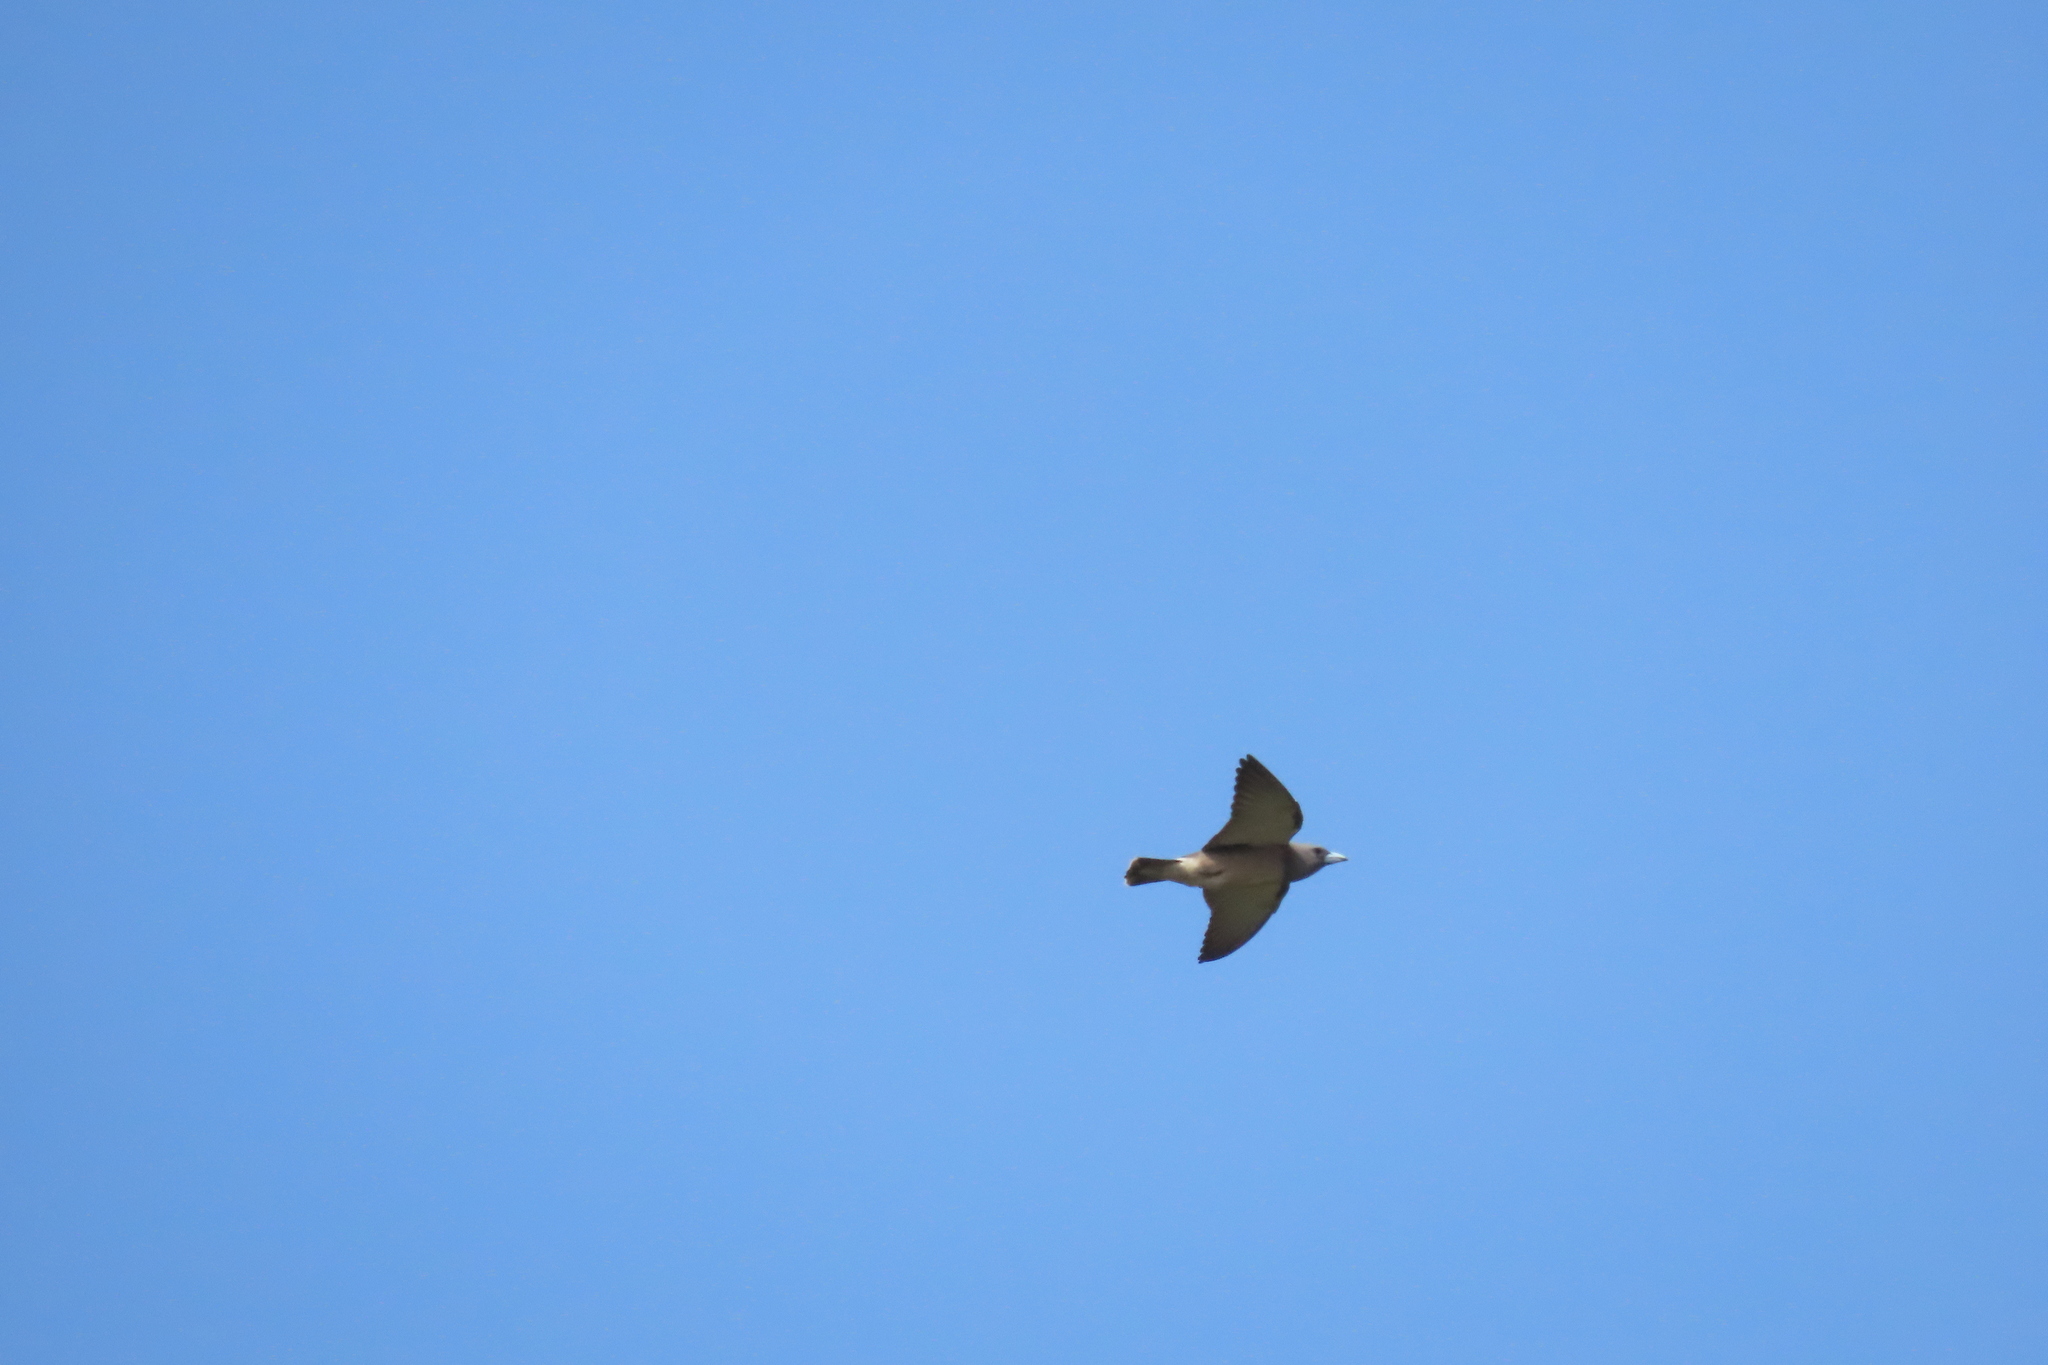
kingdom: Animalia
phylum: Chordata
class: Aves
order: Passeriformes
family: Artamidae
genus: Artamus
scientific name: Artamus fuscus
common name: Ashy woodswallow
